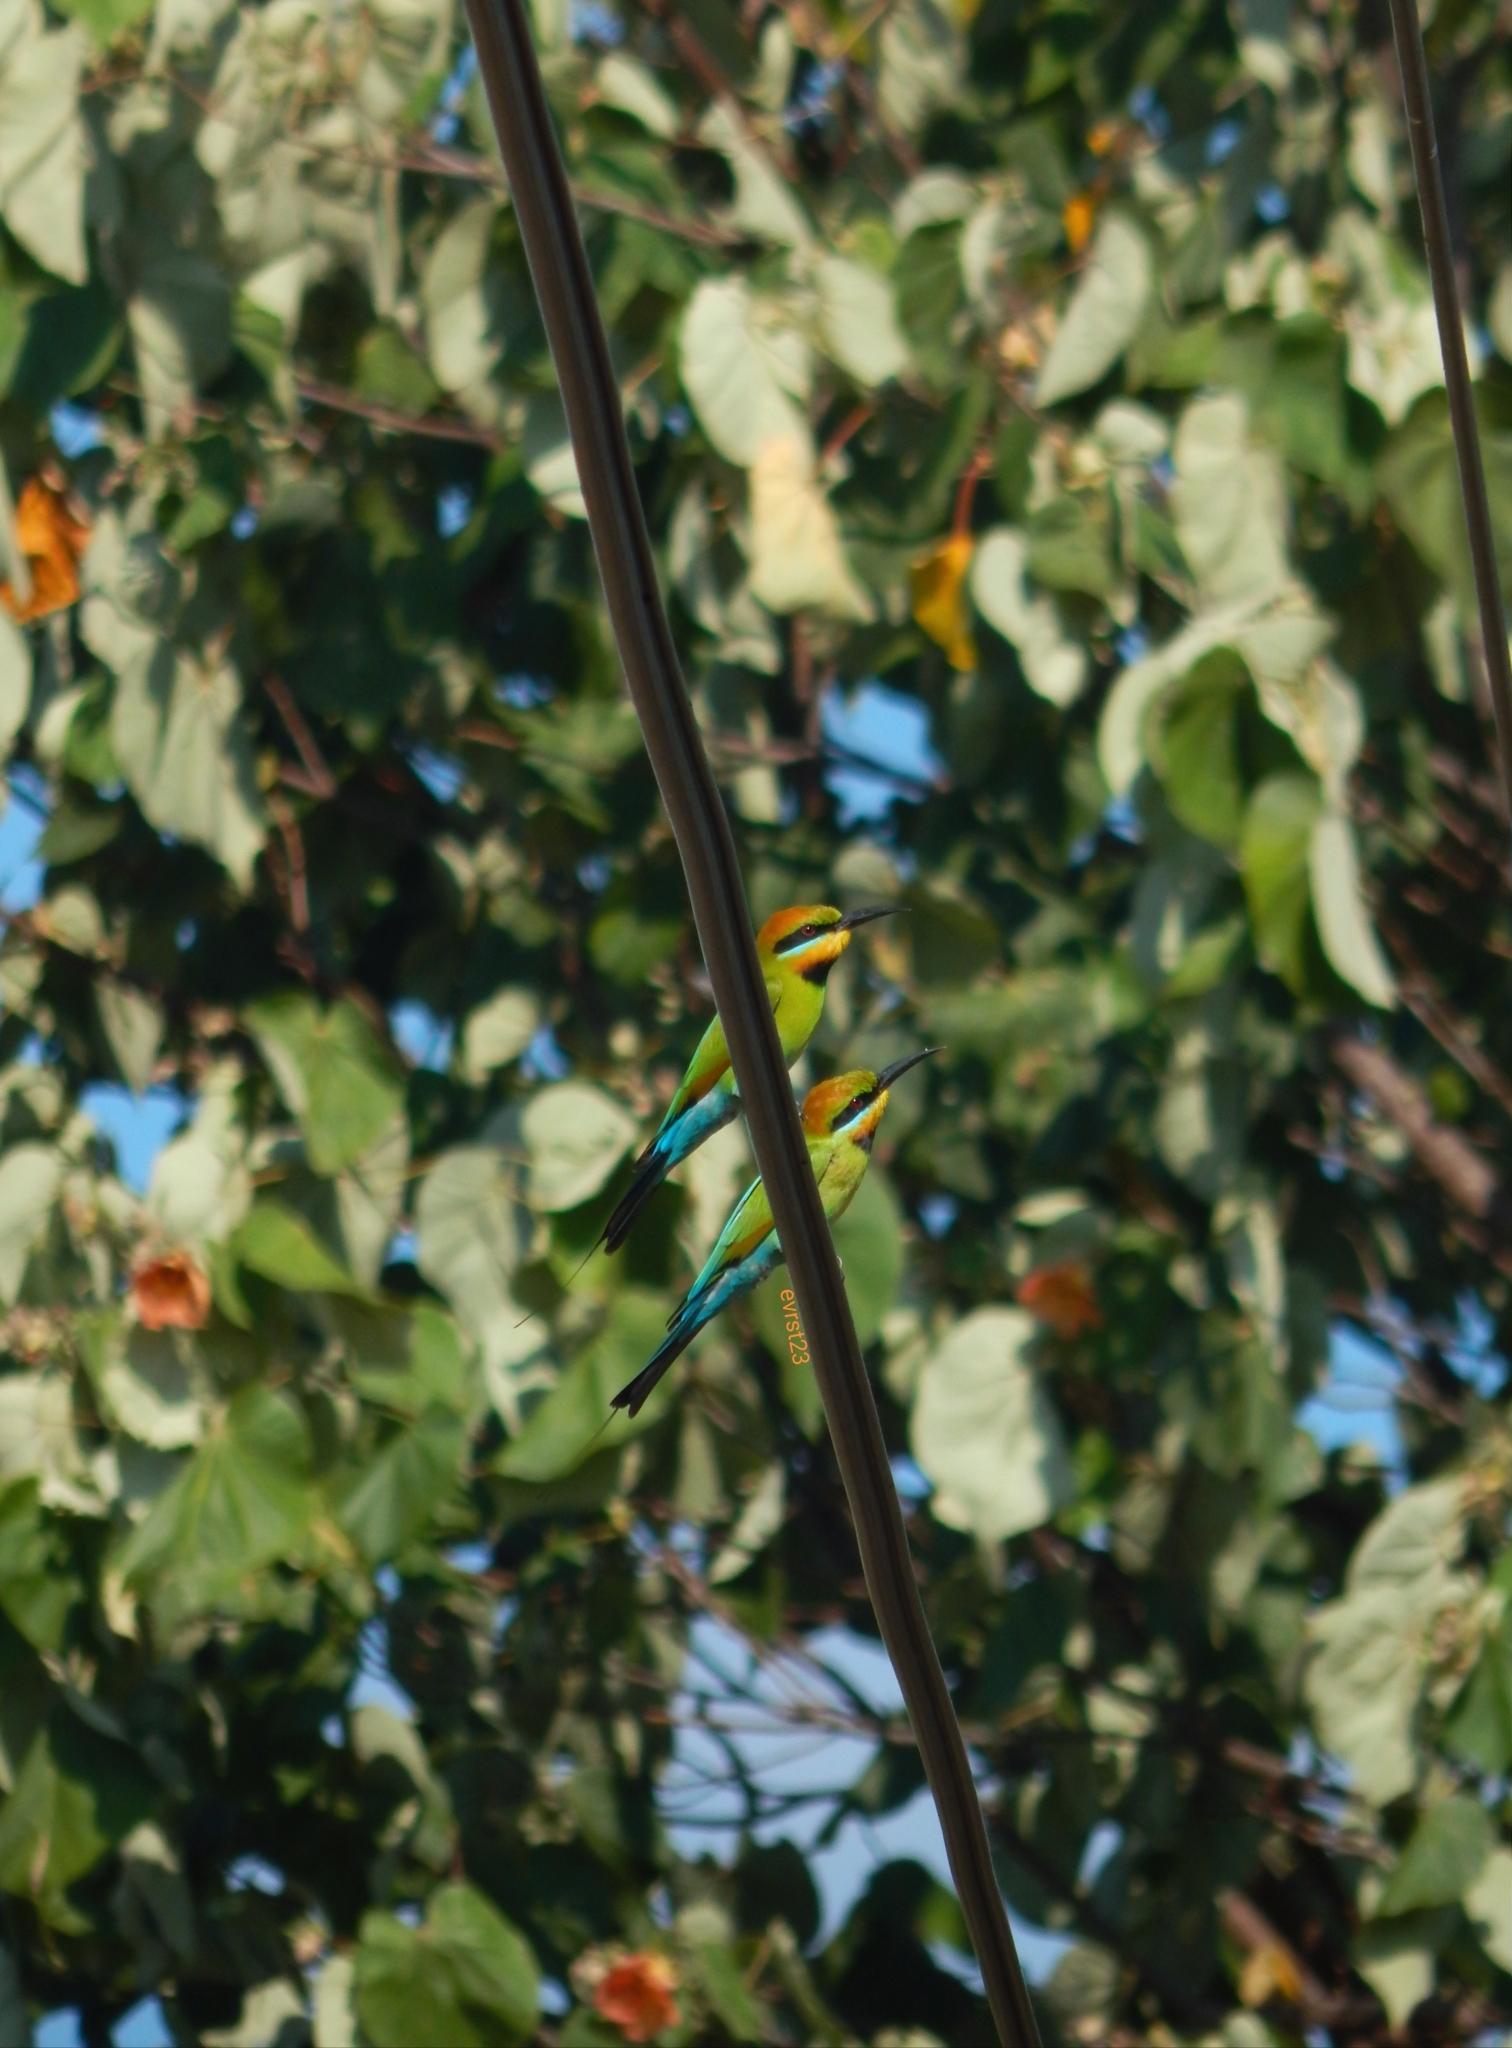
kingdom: Animalia
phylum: Chordata
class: Aves
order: Coraciiformes
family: Meropidae
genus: Merops
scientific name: Merops ornatus
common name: Rainbow bee-eater
